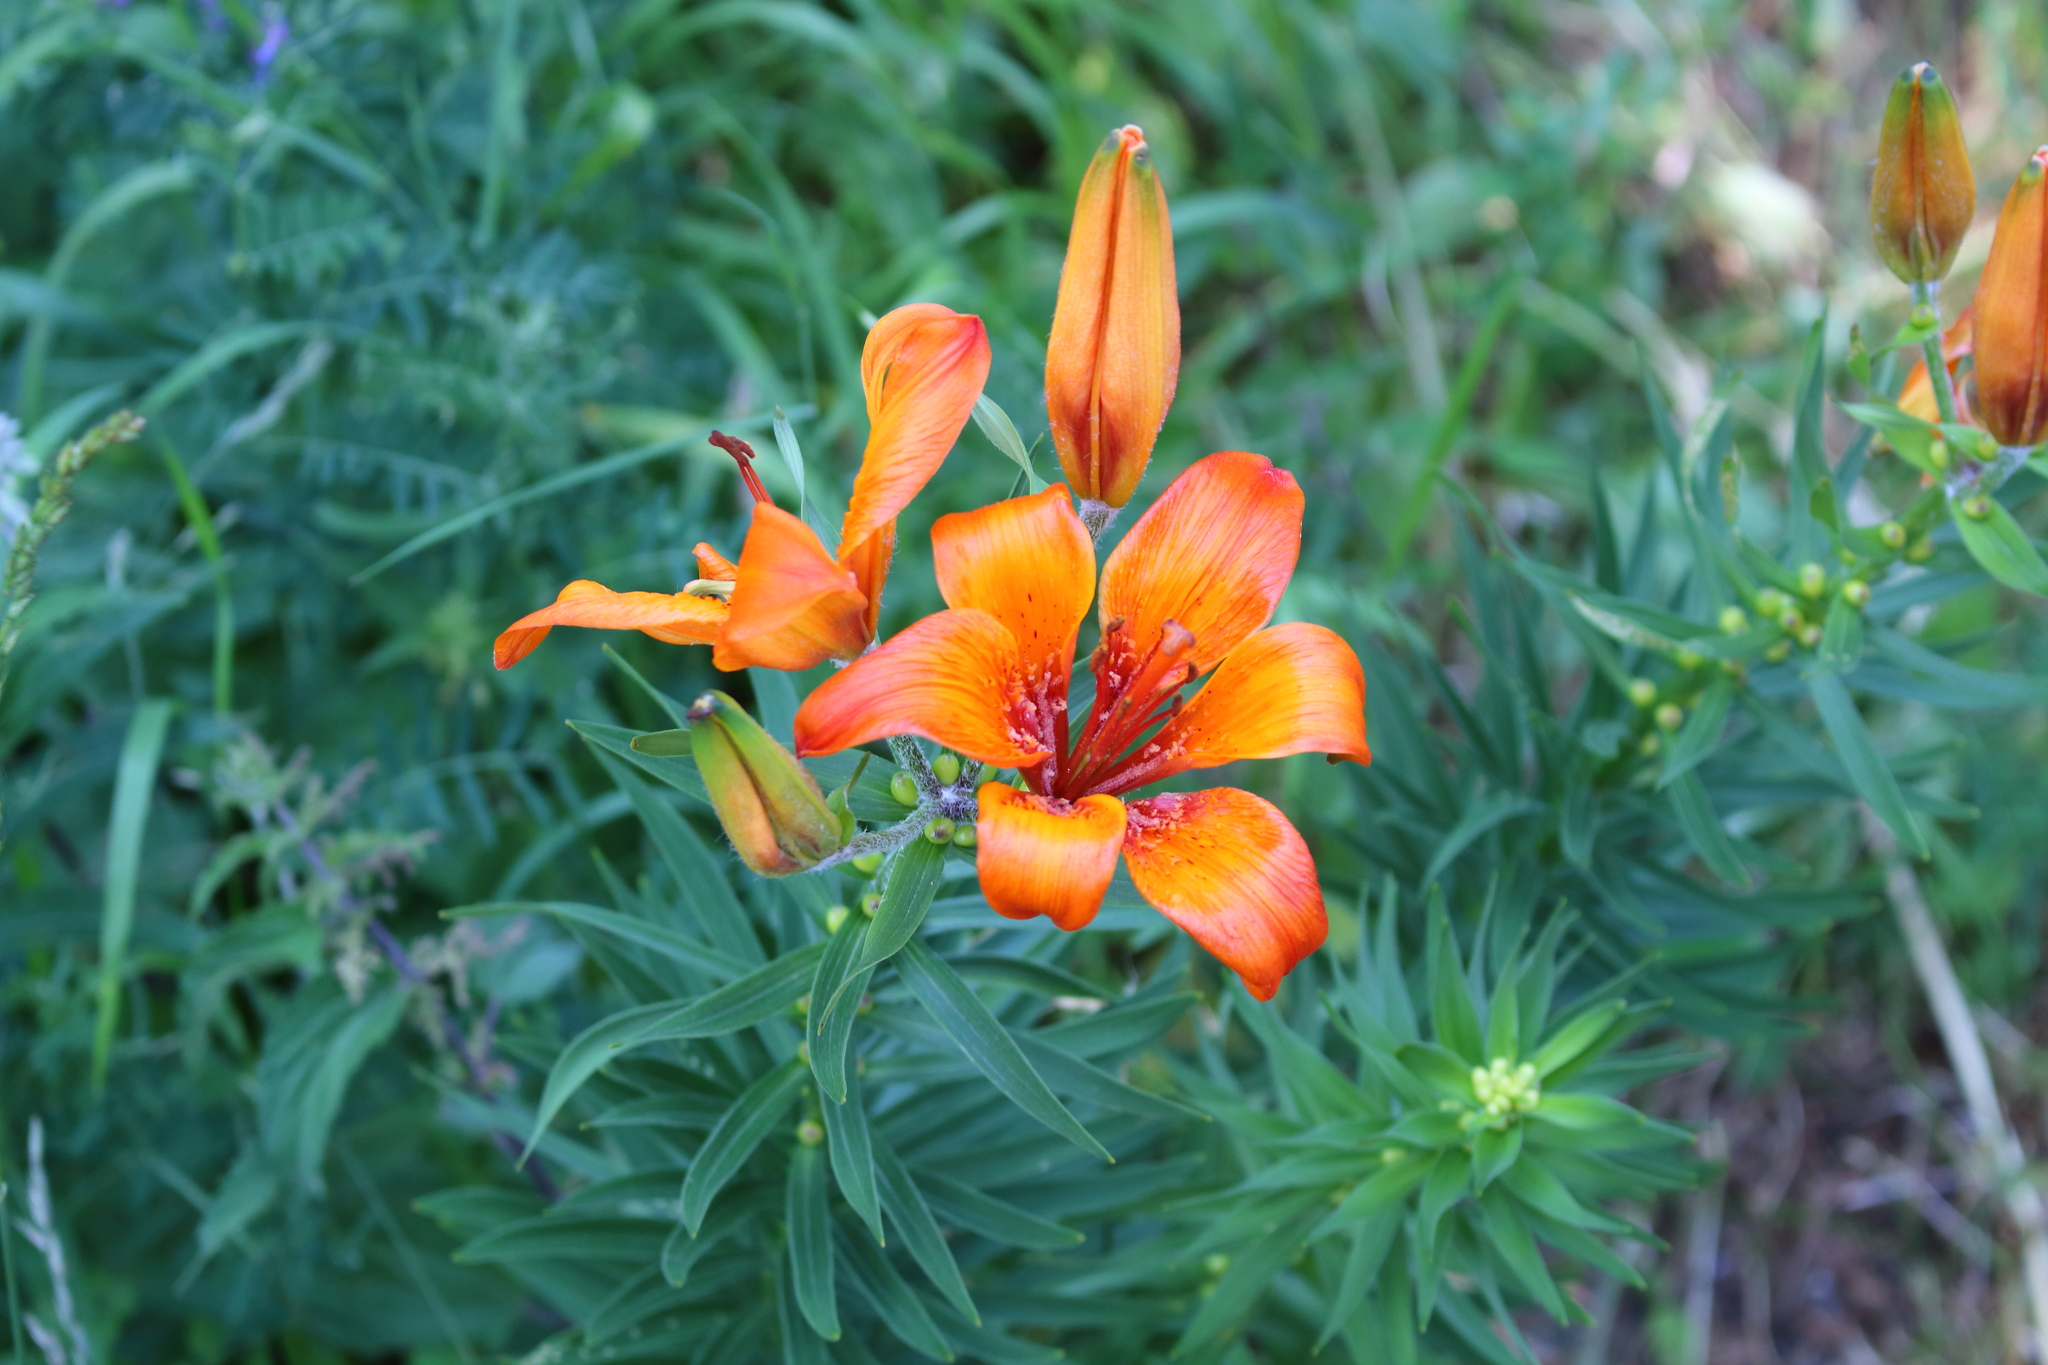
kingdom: Plantae
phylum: Tracheophyta
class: Liliopsida
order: Liliales
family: Liliaceae
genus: Lilium
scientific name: Lilium bulbiferum
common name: Orange lily
